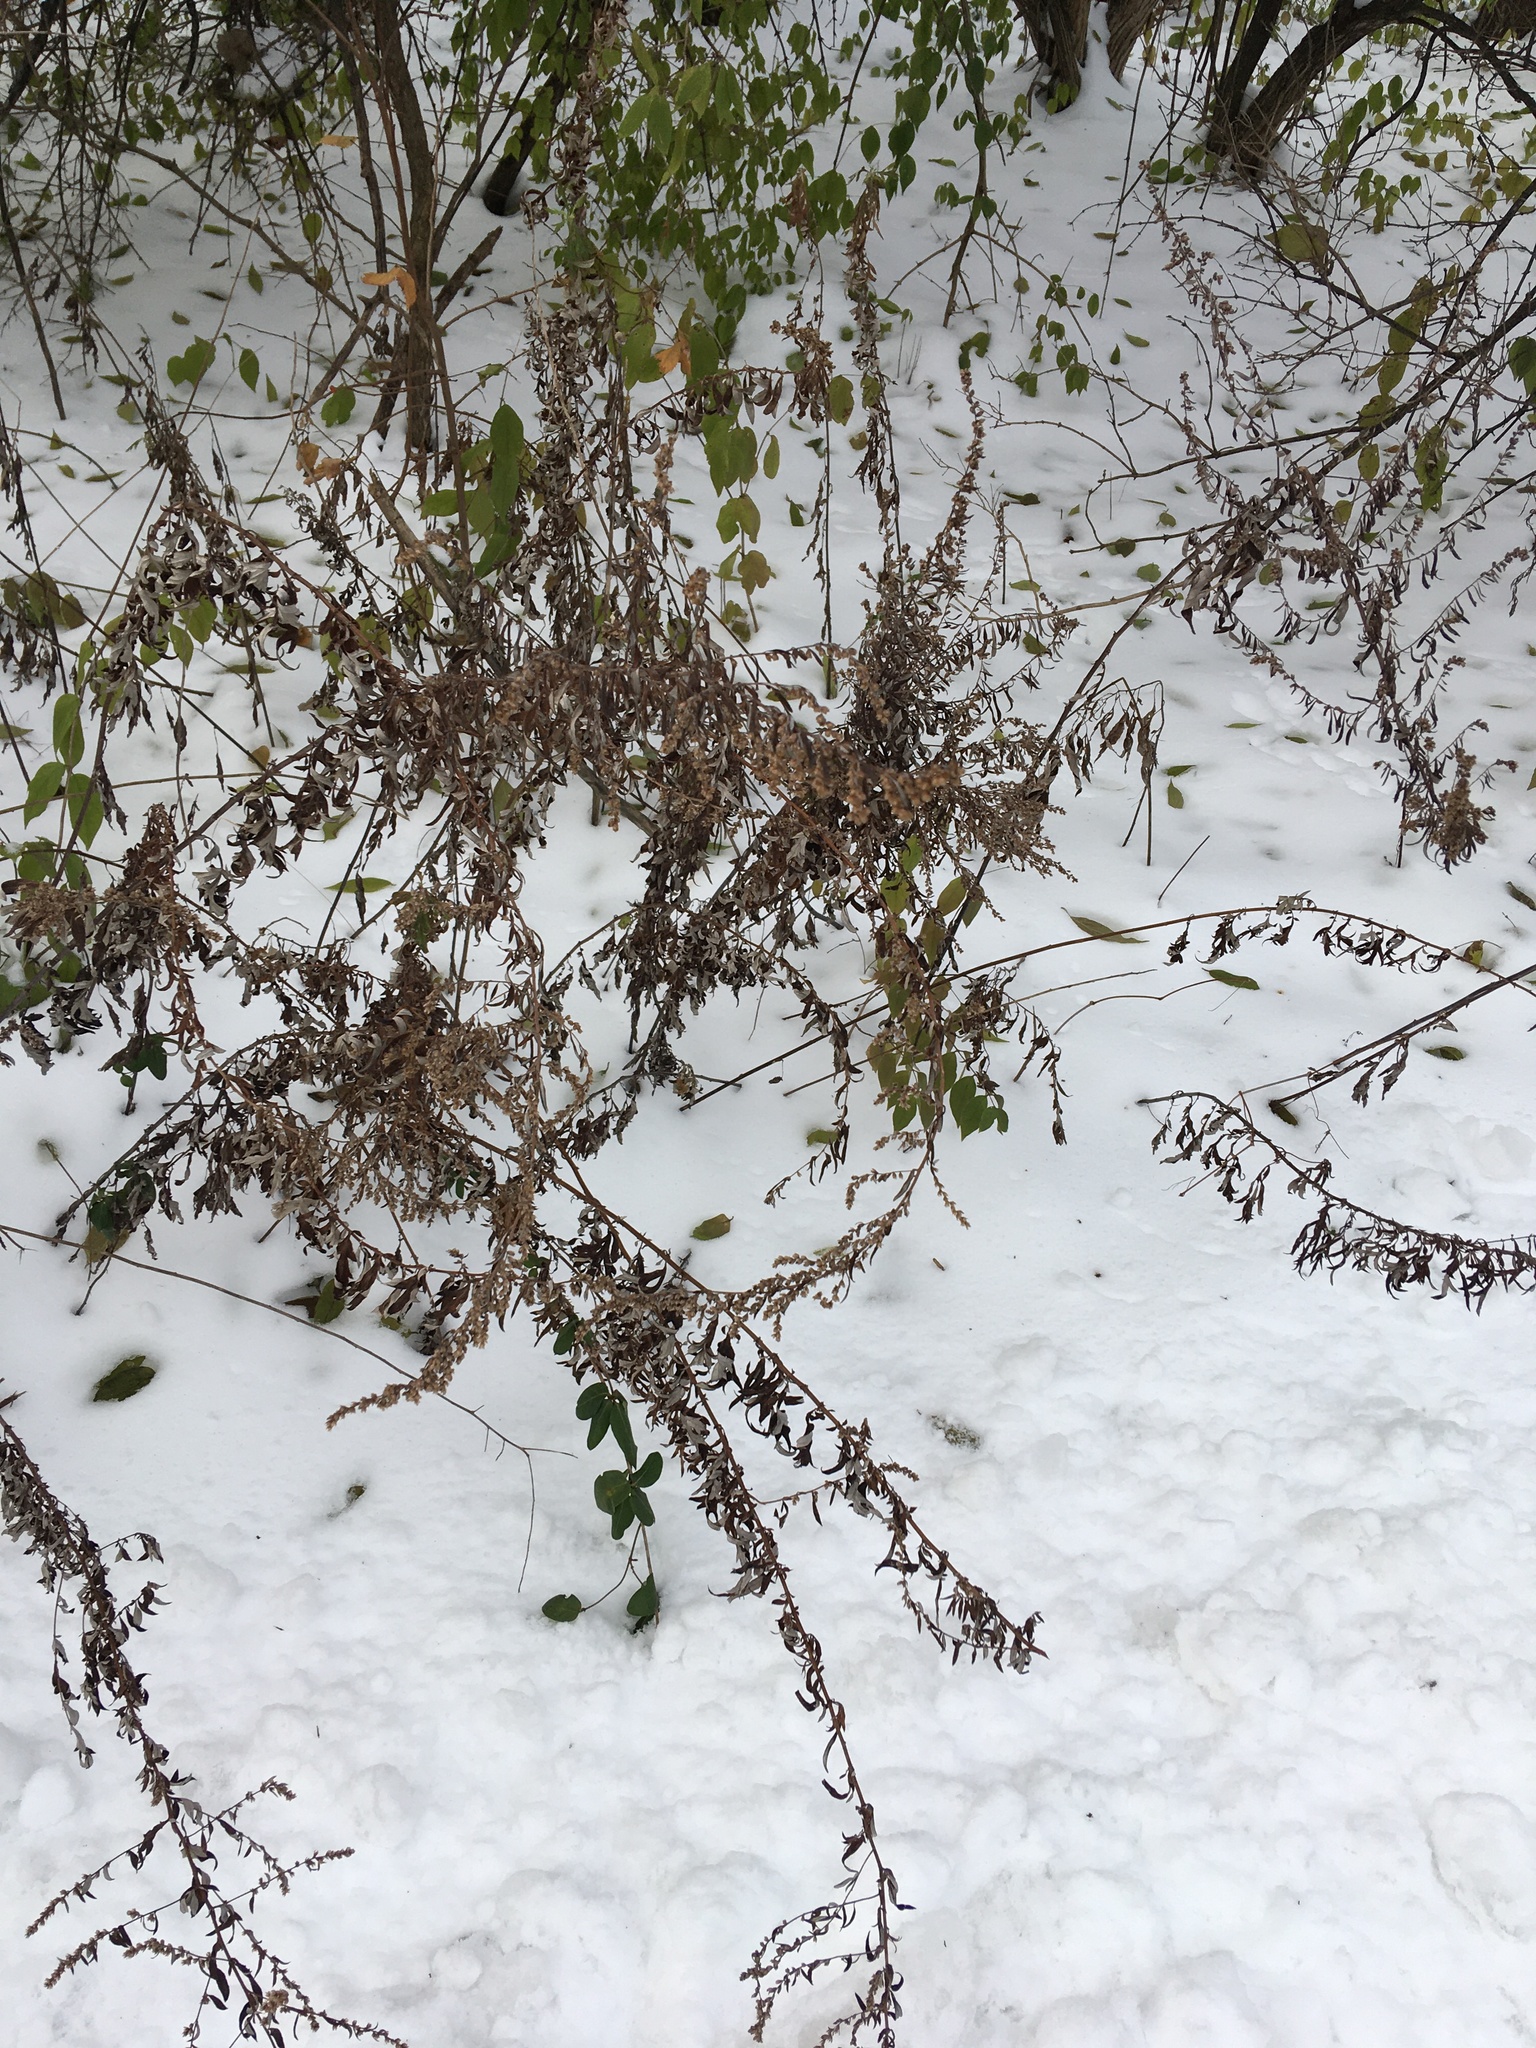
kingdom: Plantae
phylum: Tracheophyta
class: Magnoliopsida
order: Asterales
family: Asteraceae
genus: Artemisia
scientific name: Artemisia vulgaris
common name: Mugwort
